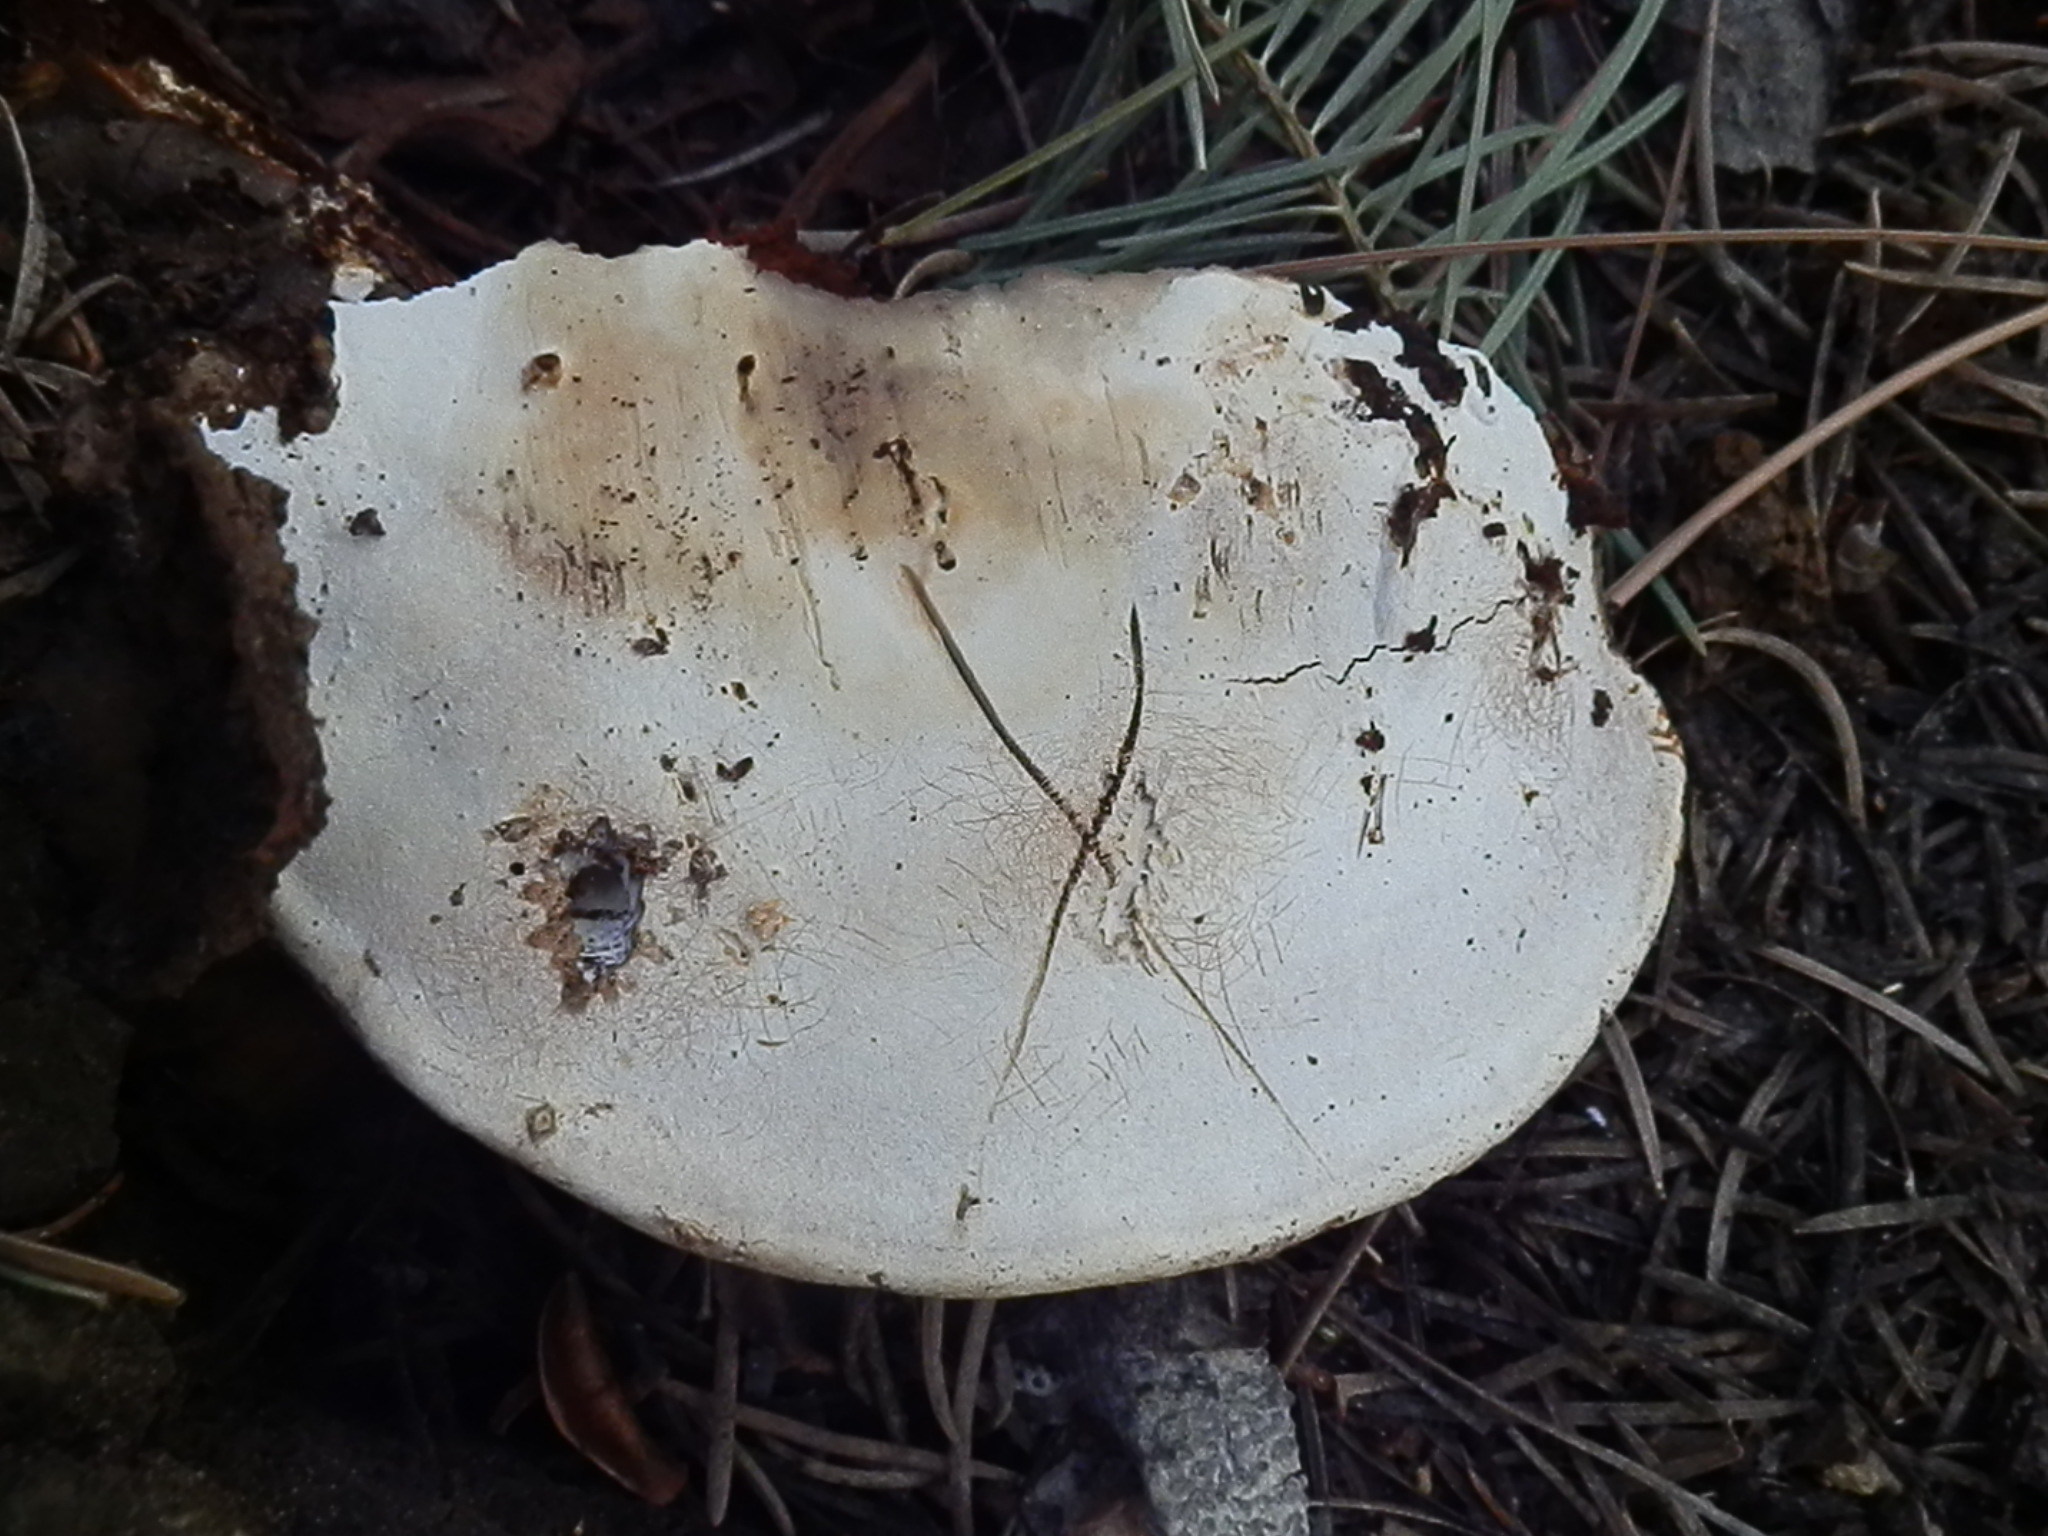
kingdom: Fungi
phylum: Basidiomycota
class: Agaricomycetes
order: Polyporales
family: Polyporaceae
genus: Ganoderma
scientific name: Ganoderma applanatum
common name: Artist's bracket
